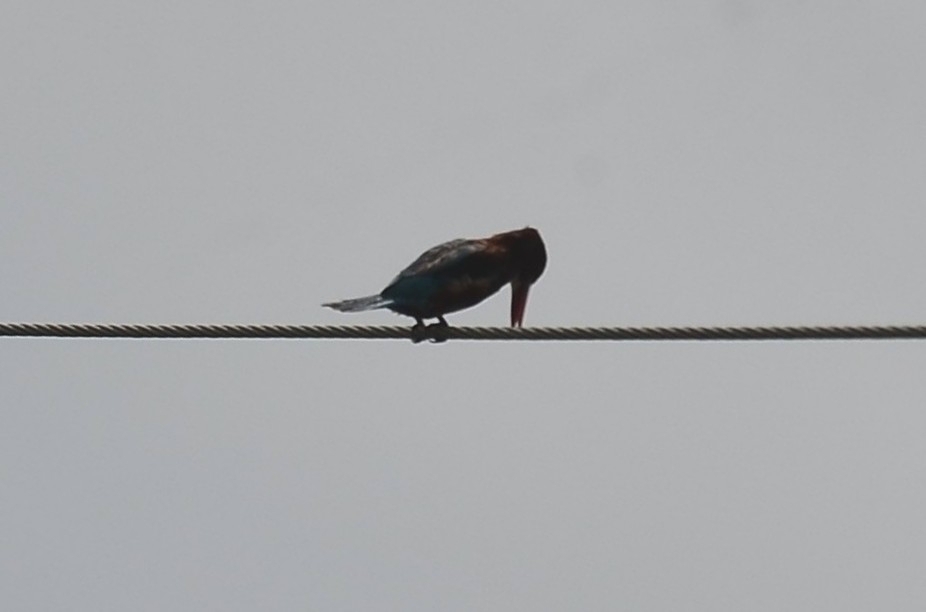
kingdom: Animalia
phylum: Chordata
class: Aves
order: Coraciiformes
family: Alcedinidae
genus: Halcyon
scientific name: Halcyon smyrnensis
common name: White-throated kingfisher
